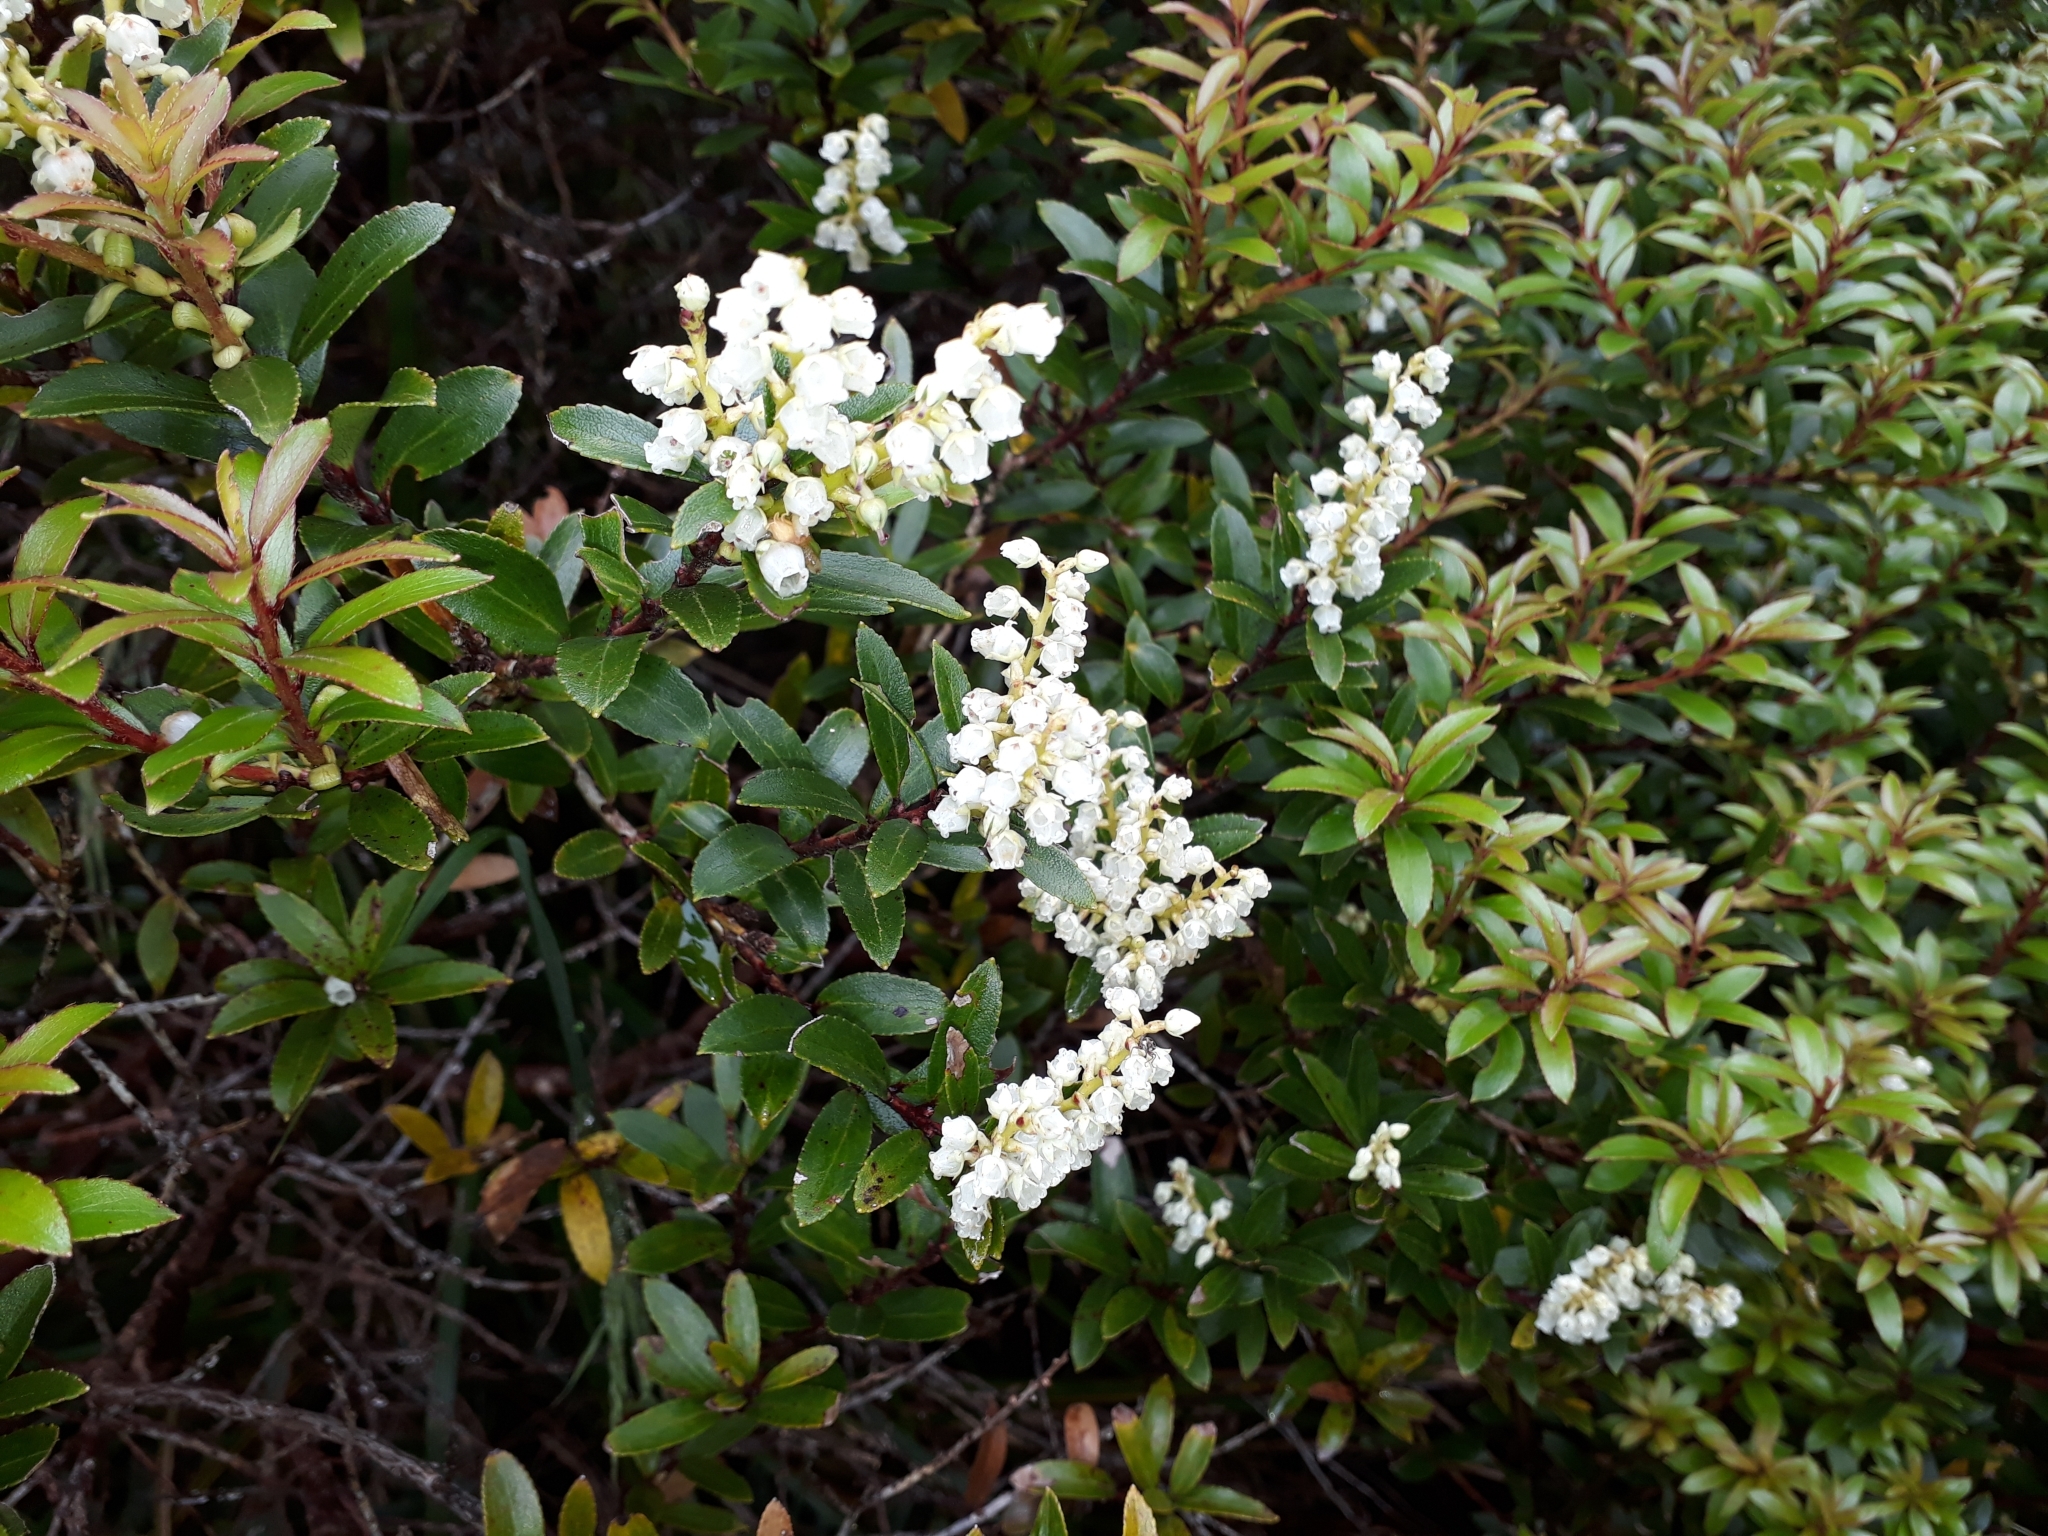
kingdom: Plantae
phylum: Tracheophyta
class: Magnoliopsida
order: Ericales
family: Ericaceae
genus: Gaultheria
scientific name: Gaultheria rupestris
